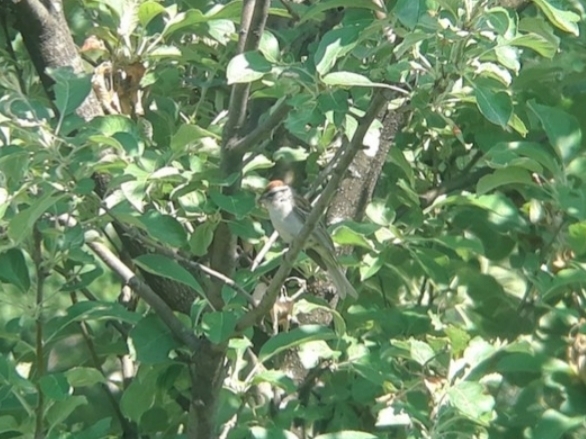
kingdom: Animalia
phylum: Chordata
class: Aves
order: Passeriformes
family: Passerellidae
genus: Spizella
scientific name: Spizella passerina
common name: Chipping sparrow
